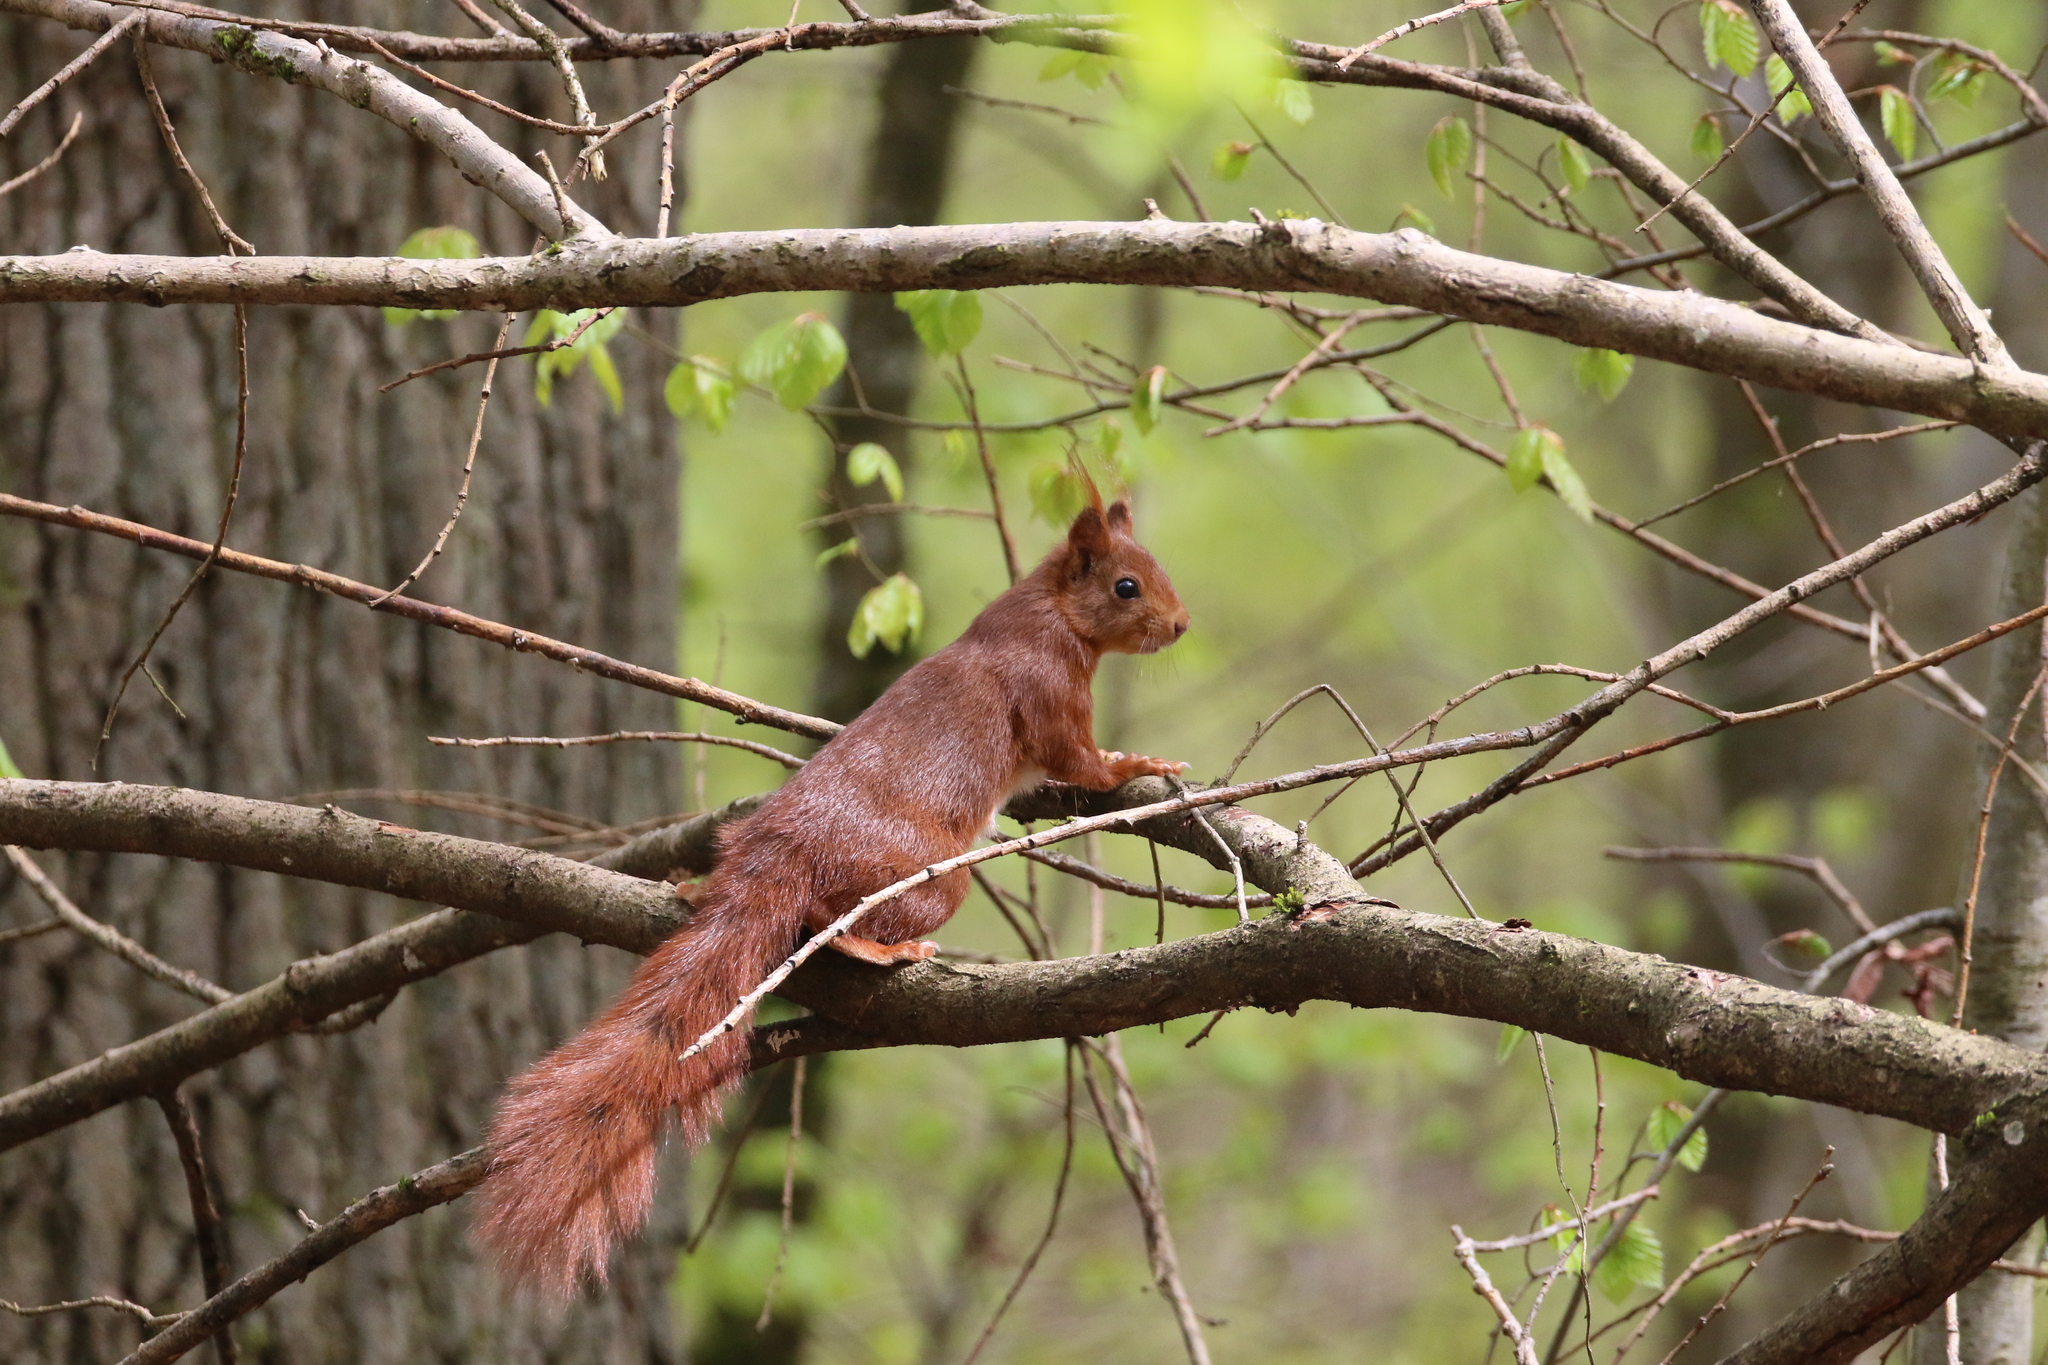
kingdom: Animalia
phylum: Chordata
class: Mammalia
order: Rodentia
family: Sciuridae
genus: Sciurus
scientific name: Sciurus vulgaris
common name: Eurasian red squirrel
